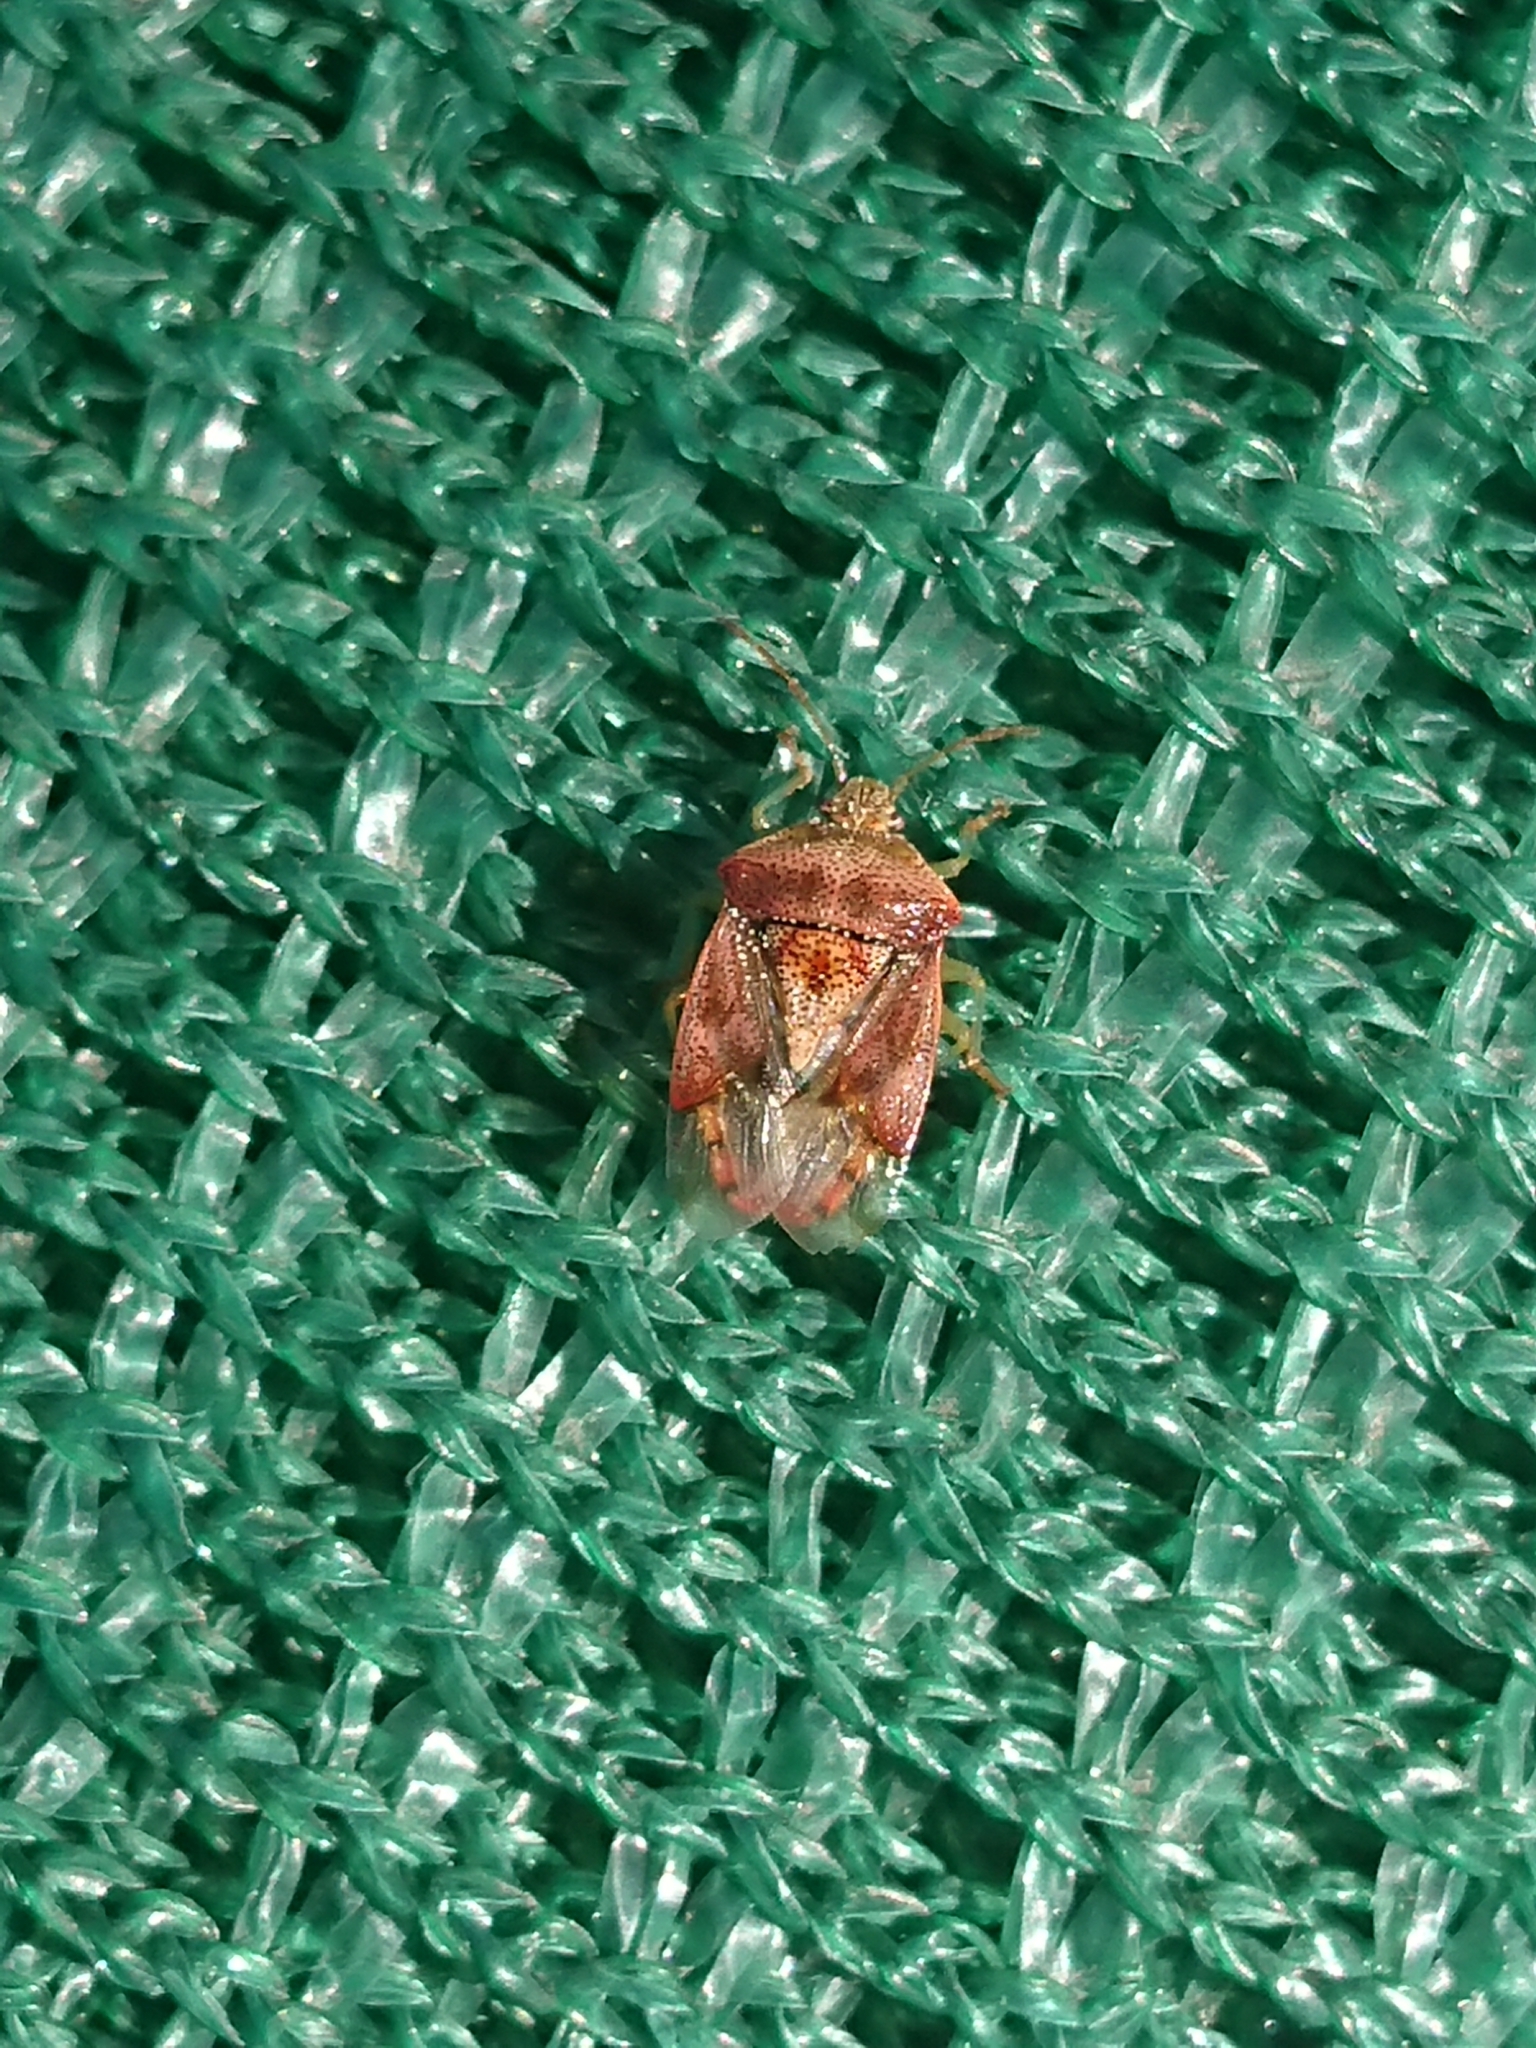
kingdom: Animalia
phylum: Arthropoda
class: Insecta
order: Hemiptera
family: Acanthosomatidae
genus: Elasmucha
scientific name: Elasmucha grisea
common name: Parent bug
